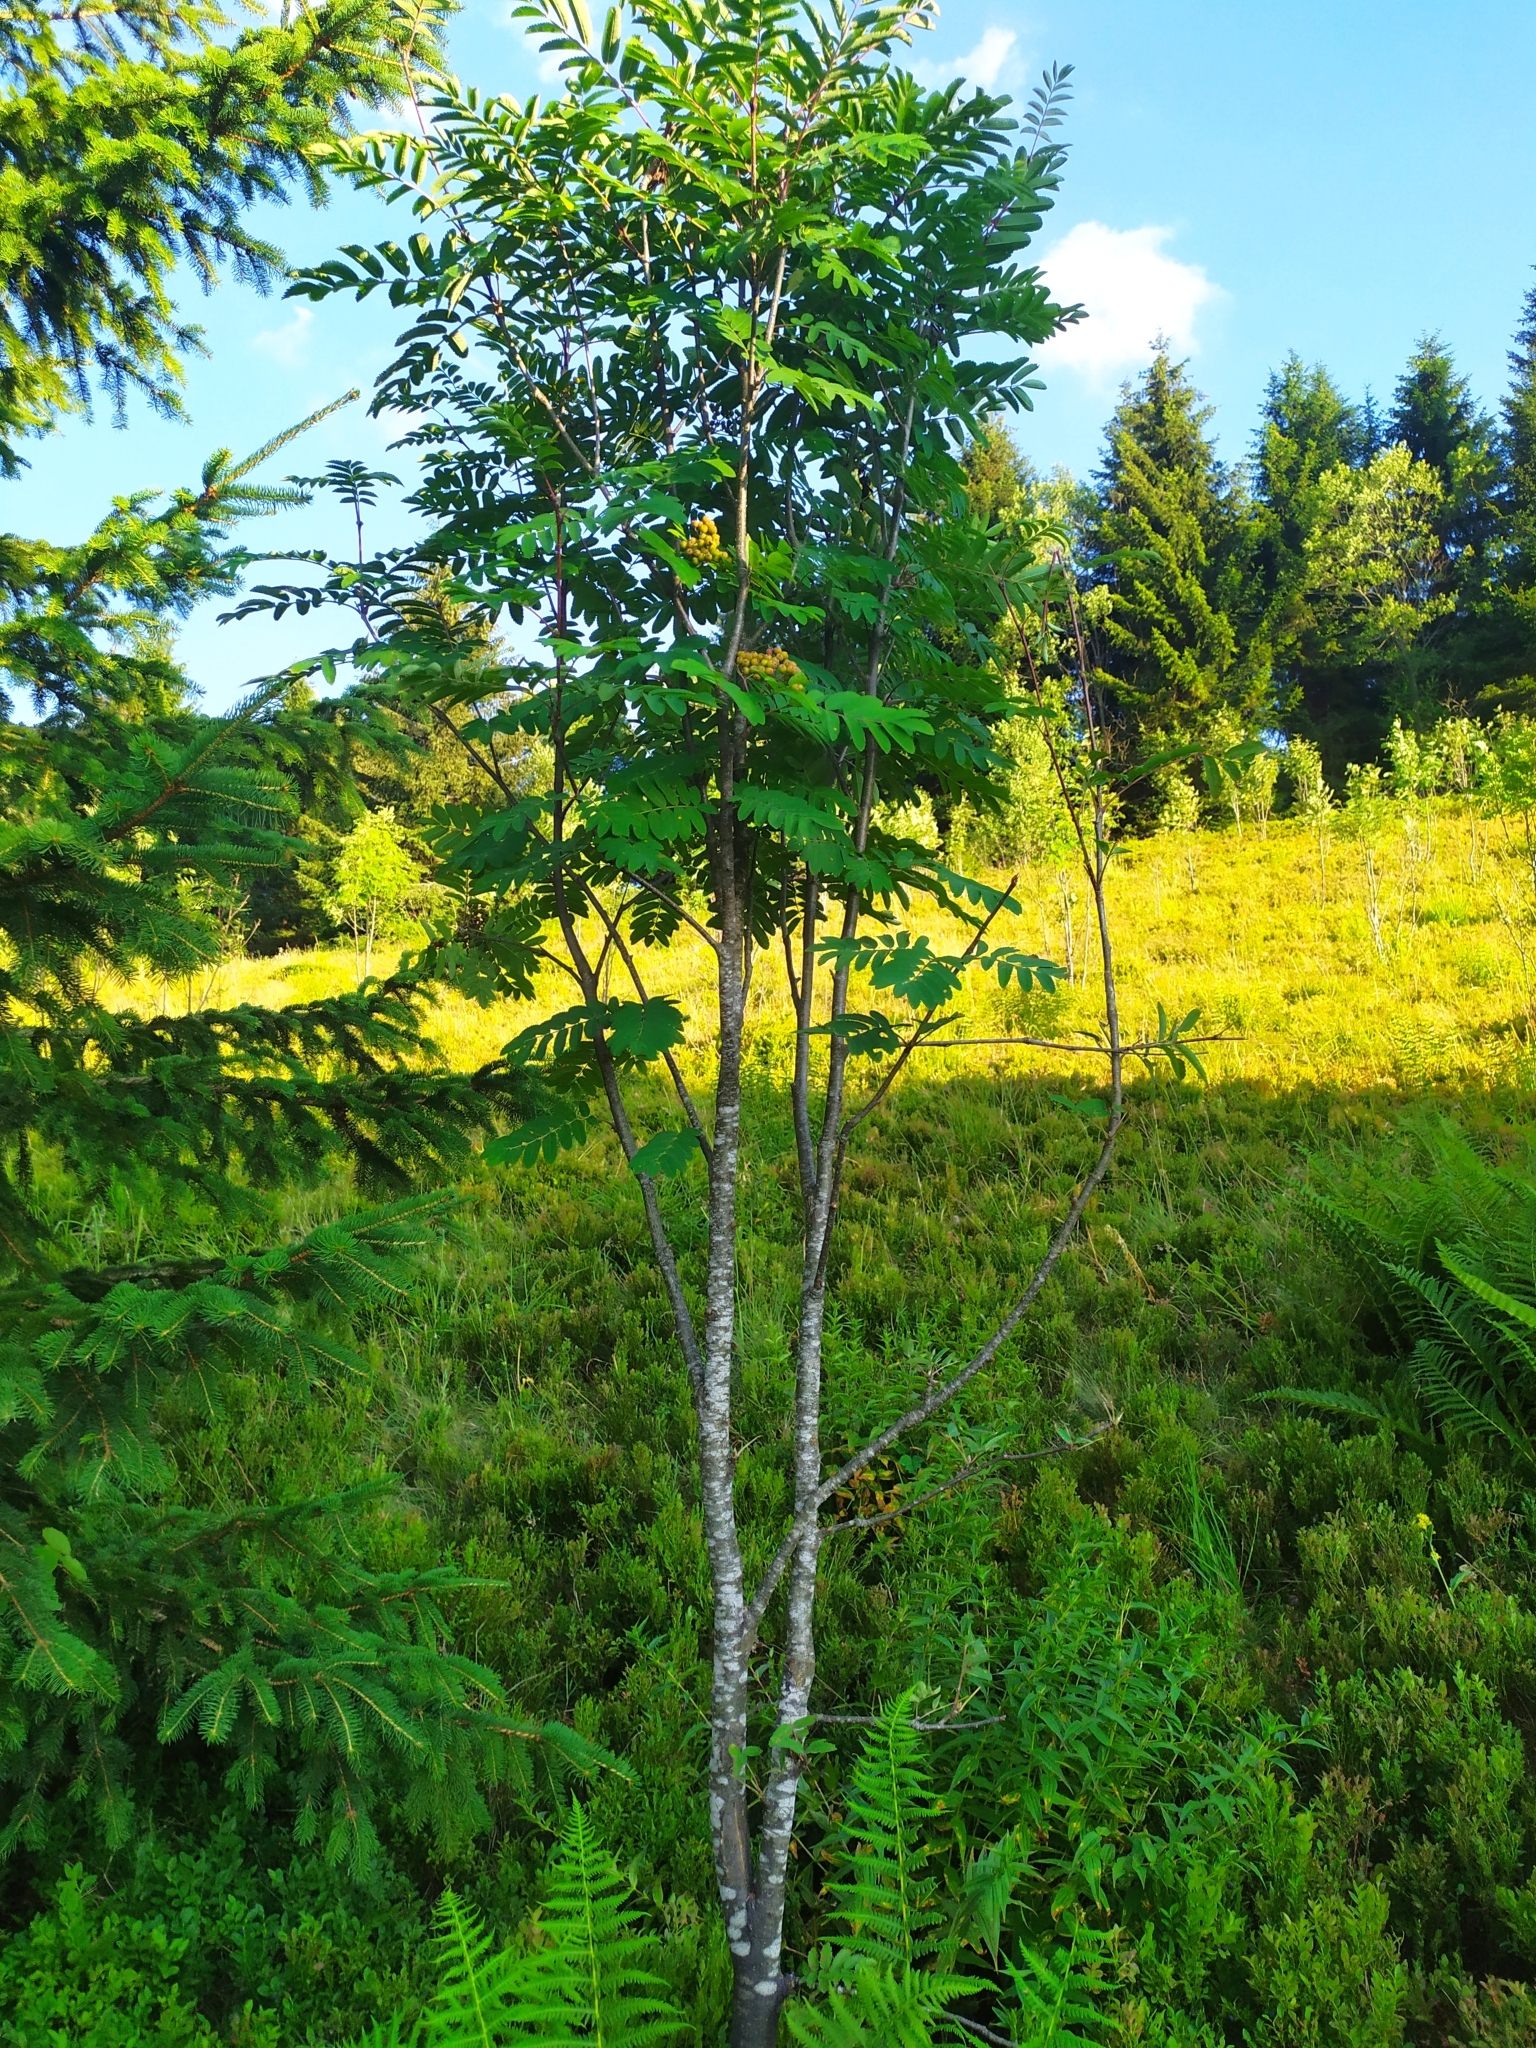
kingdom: Plantae
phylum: Tracheophyta
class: Magnoliopsida
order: Rosales
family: Rosaceae
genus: Sorbus
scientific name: Sorbus aucuparia
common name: Rowan
